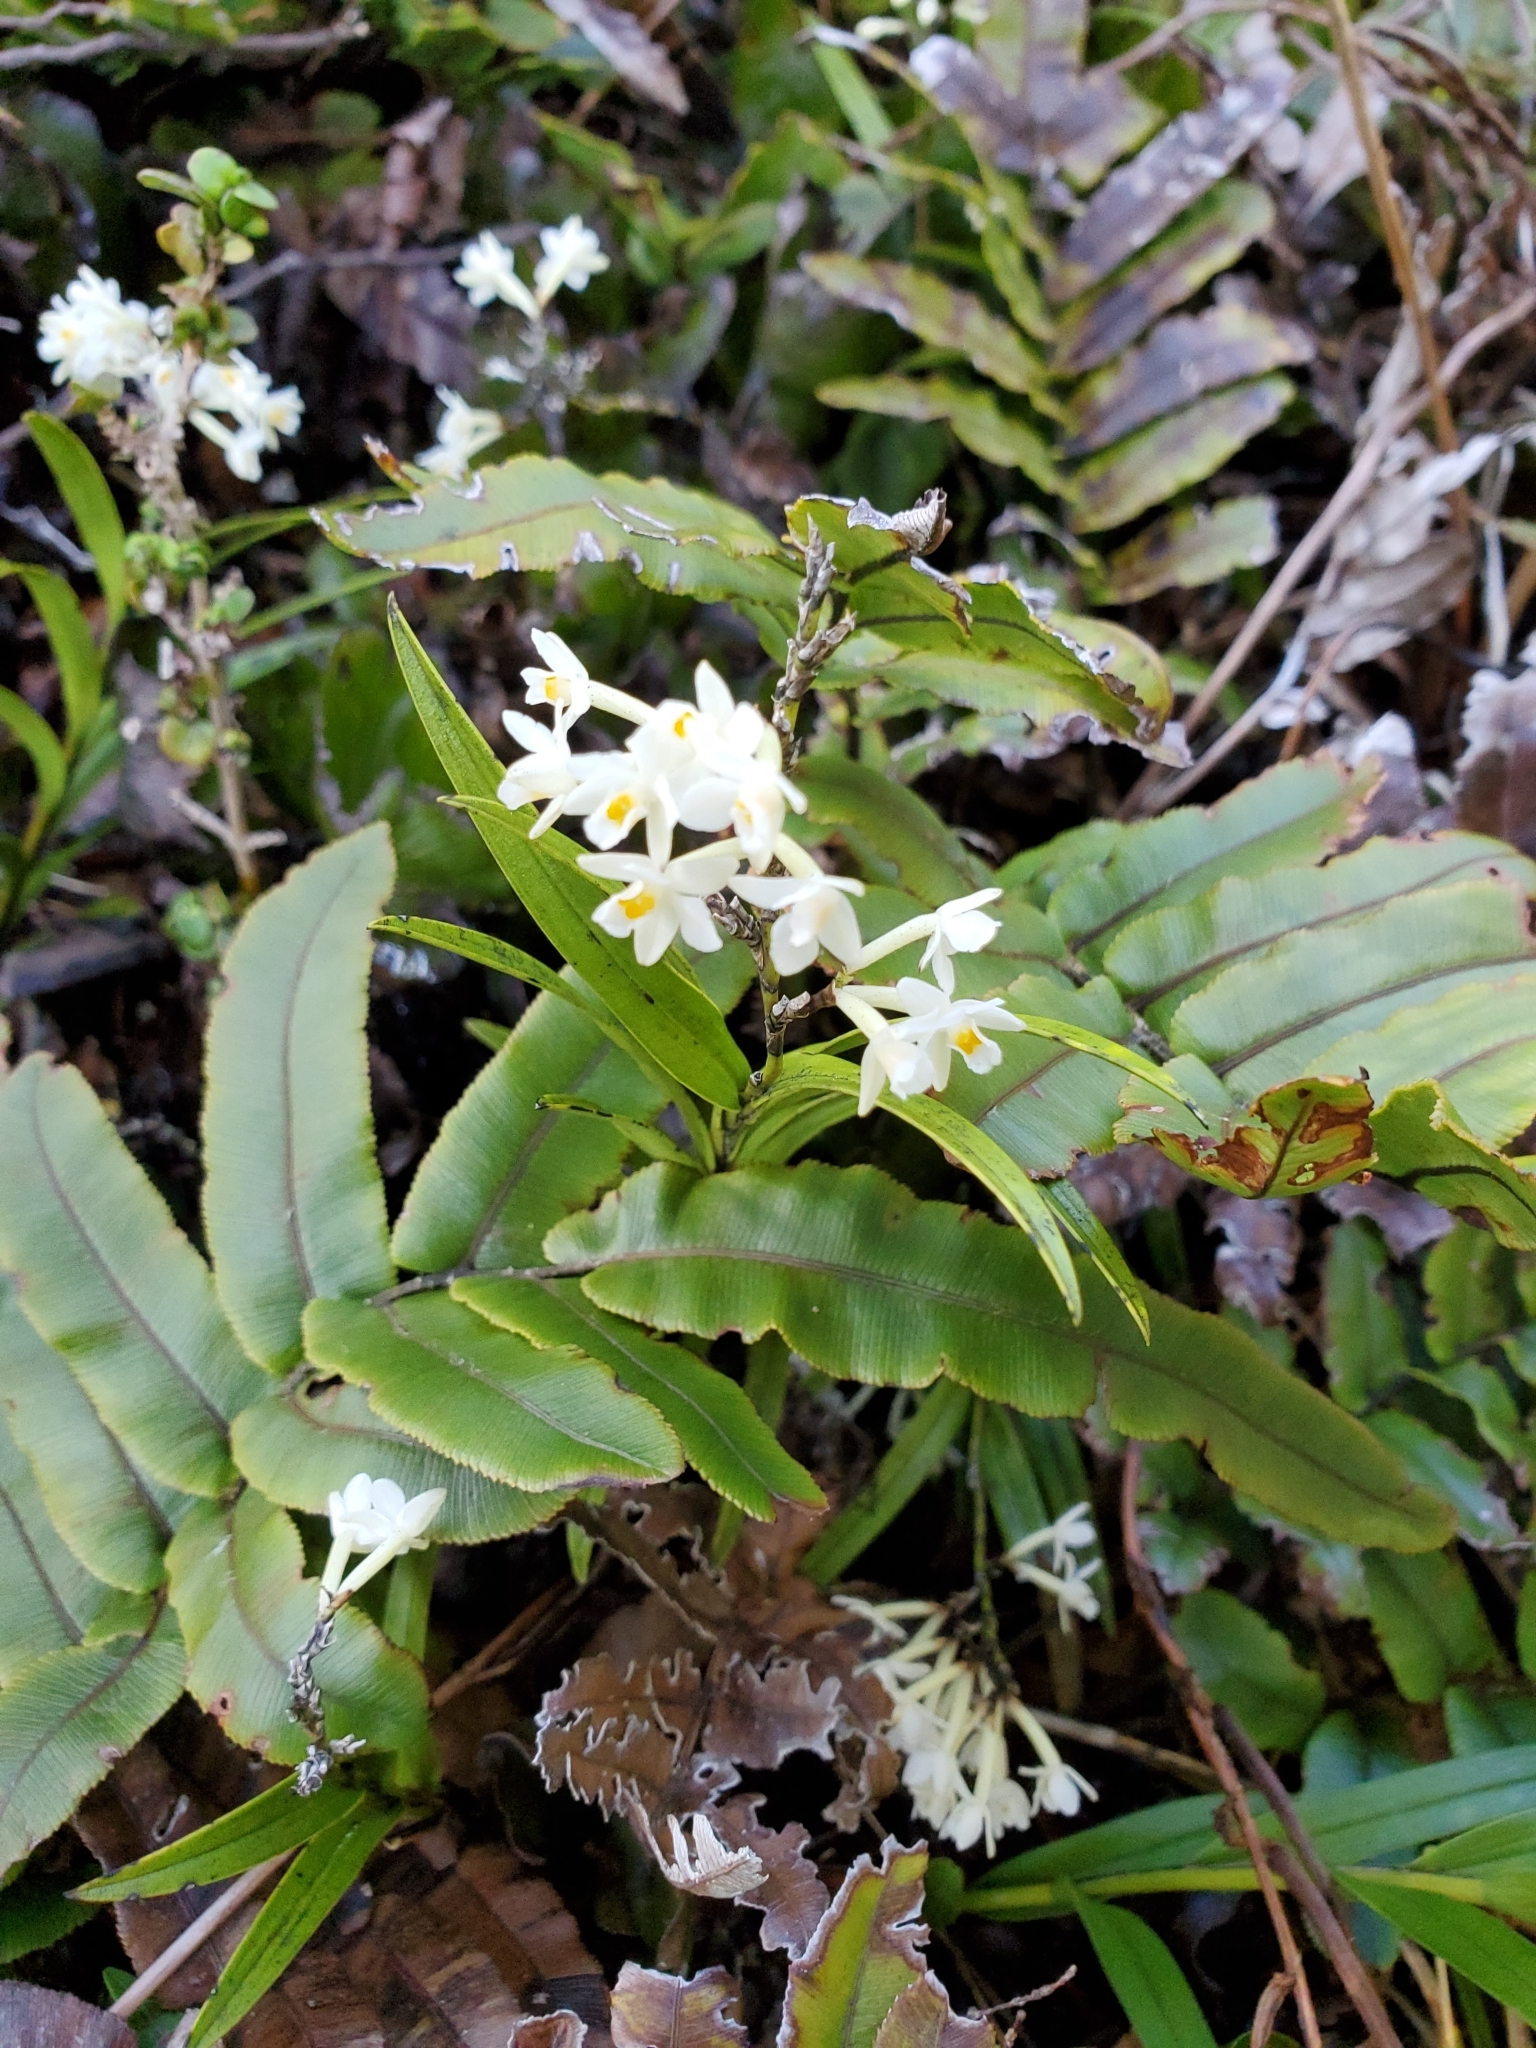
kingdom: Plantae
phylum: Tracheophyta
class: Liliopsida
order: Asparagales
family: Orchidaceae
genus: Earina
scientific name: Earina autumnalis
